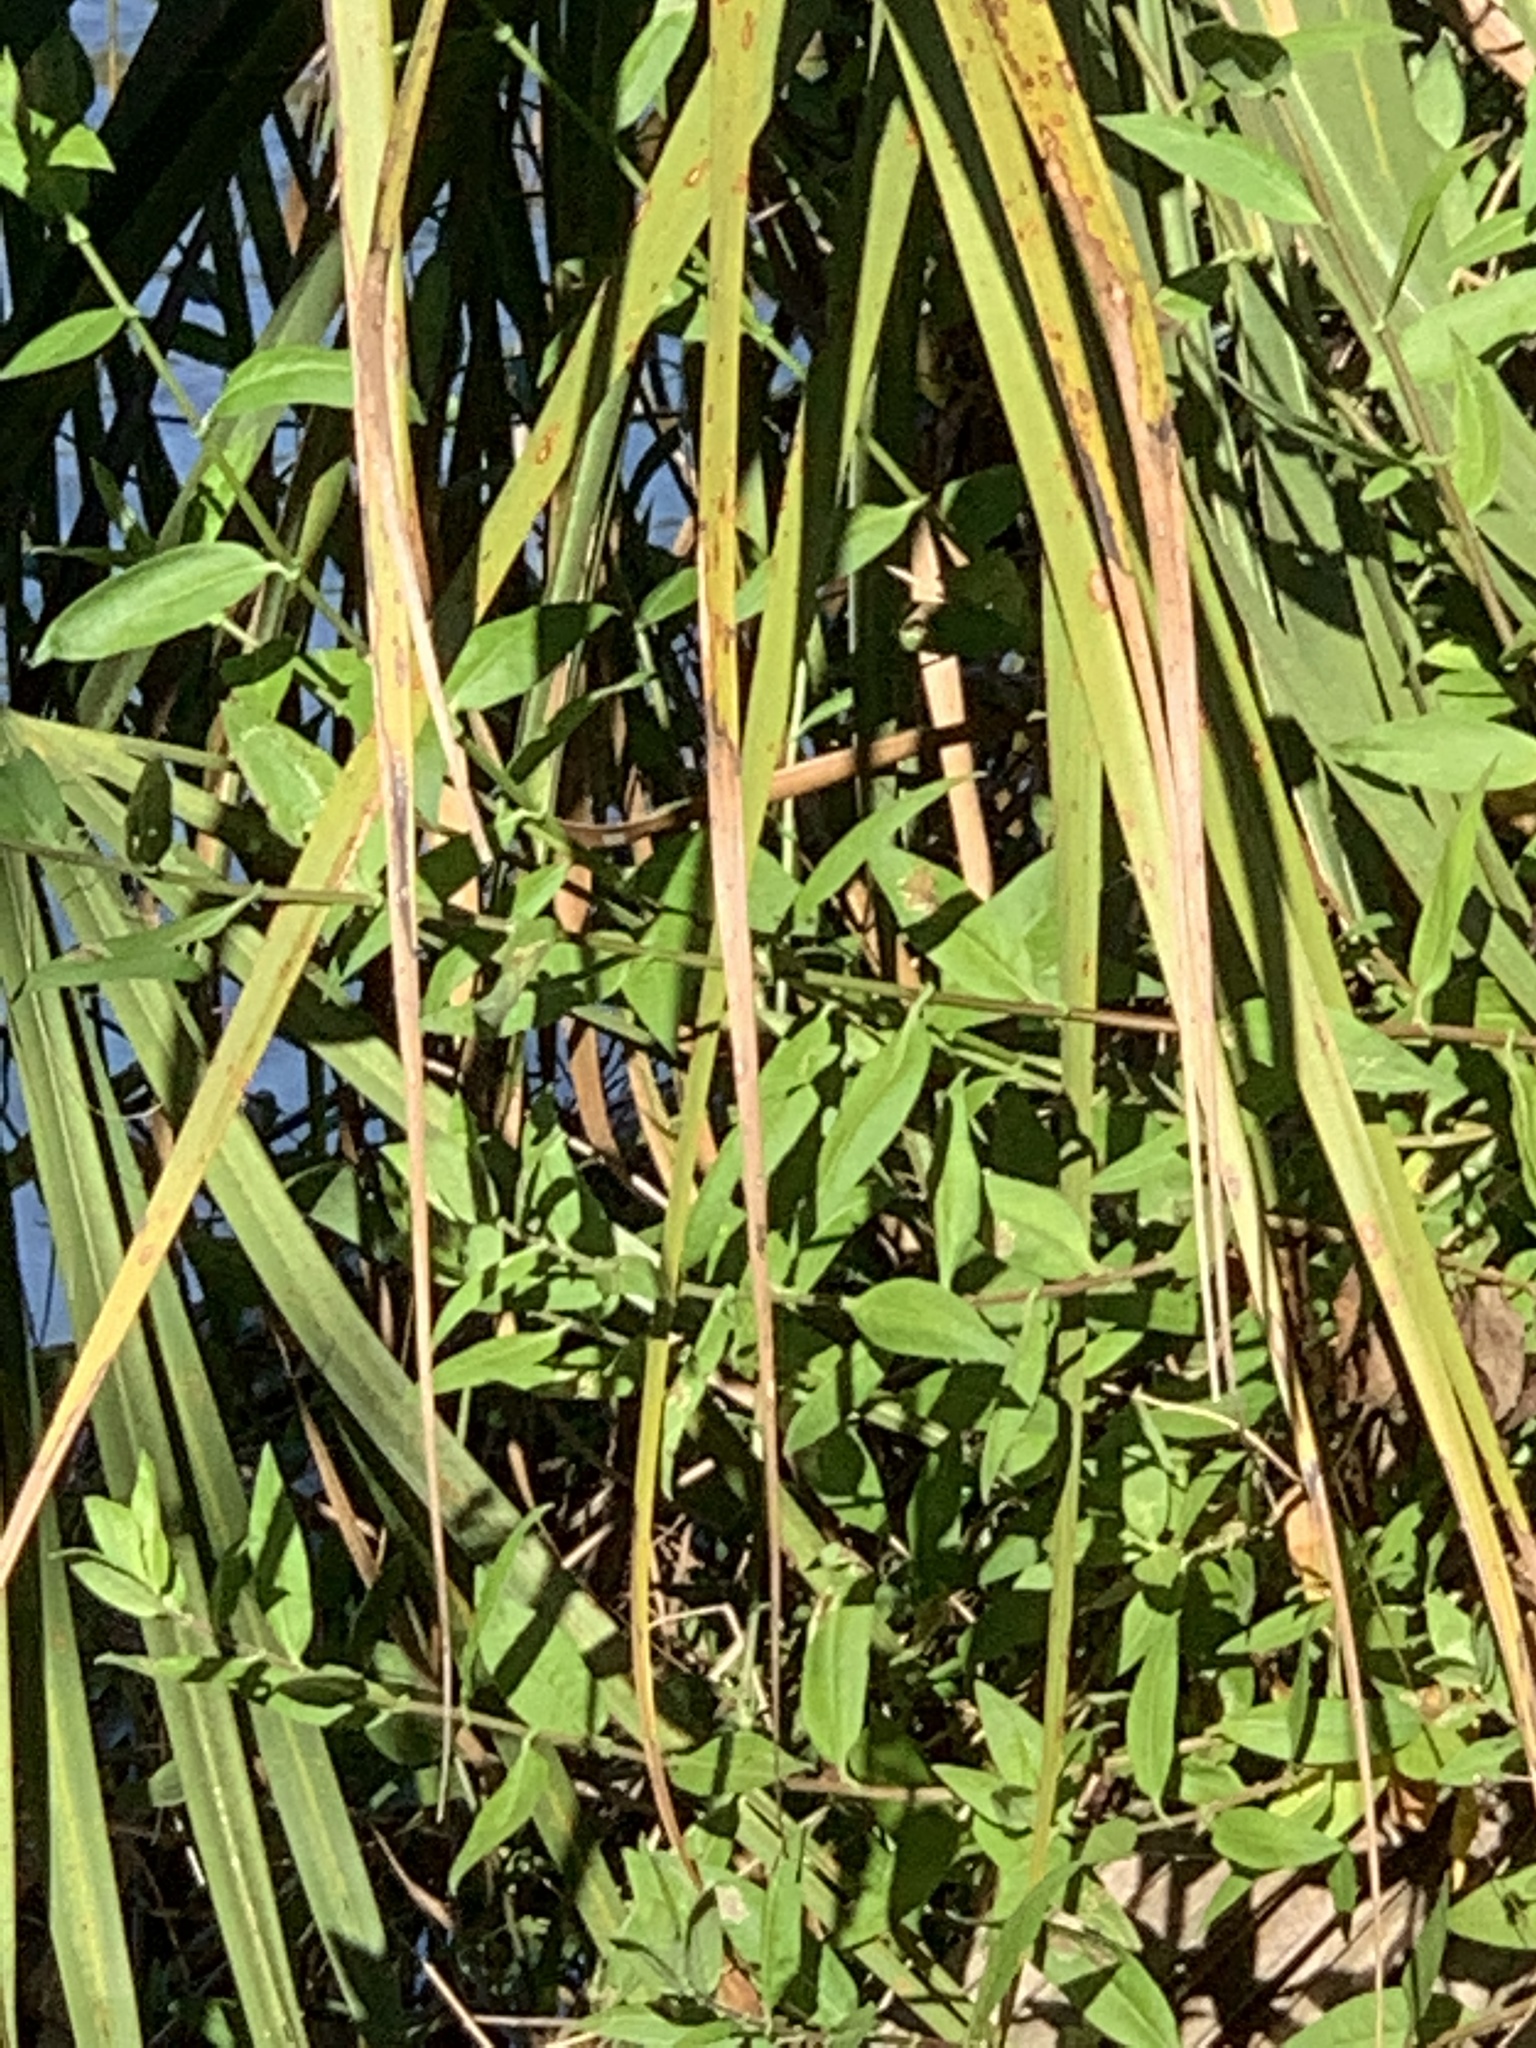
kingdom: Plantae
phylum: Tracheophyta
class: Magnoliopsida
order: Asterales
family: Asteraceae
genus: Ampelaster
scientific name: Ampelaster carolinianus
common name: Climbing aster
